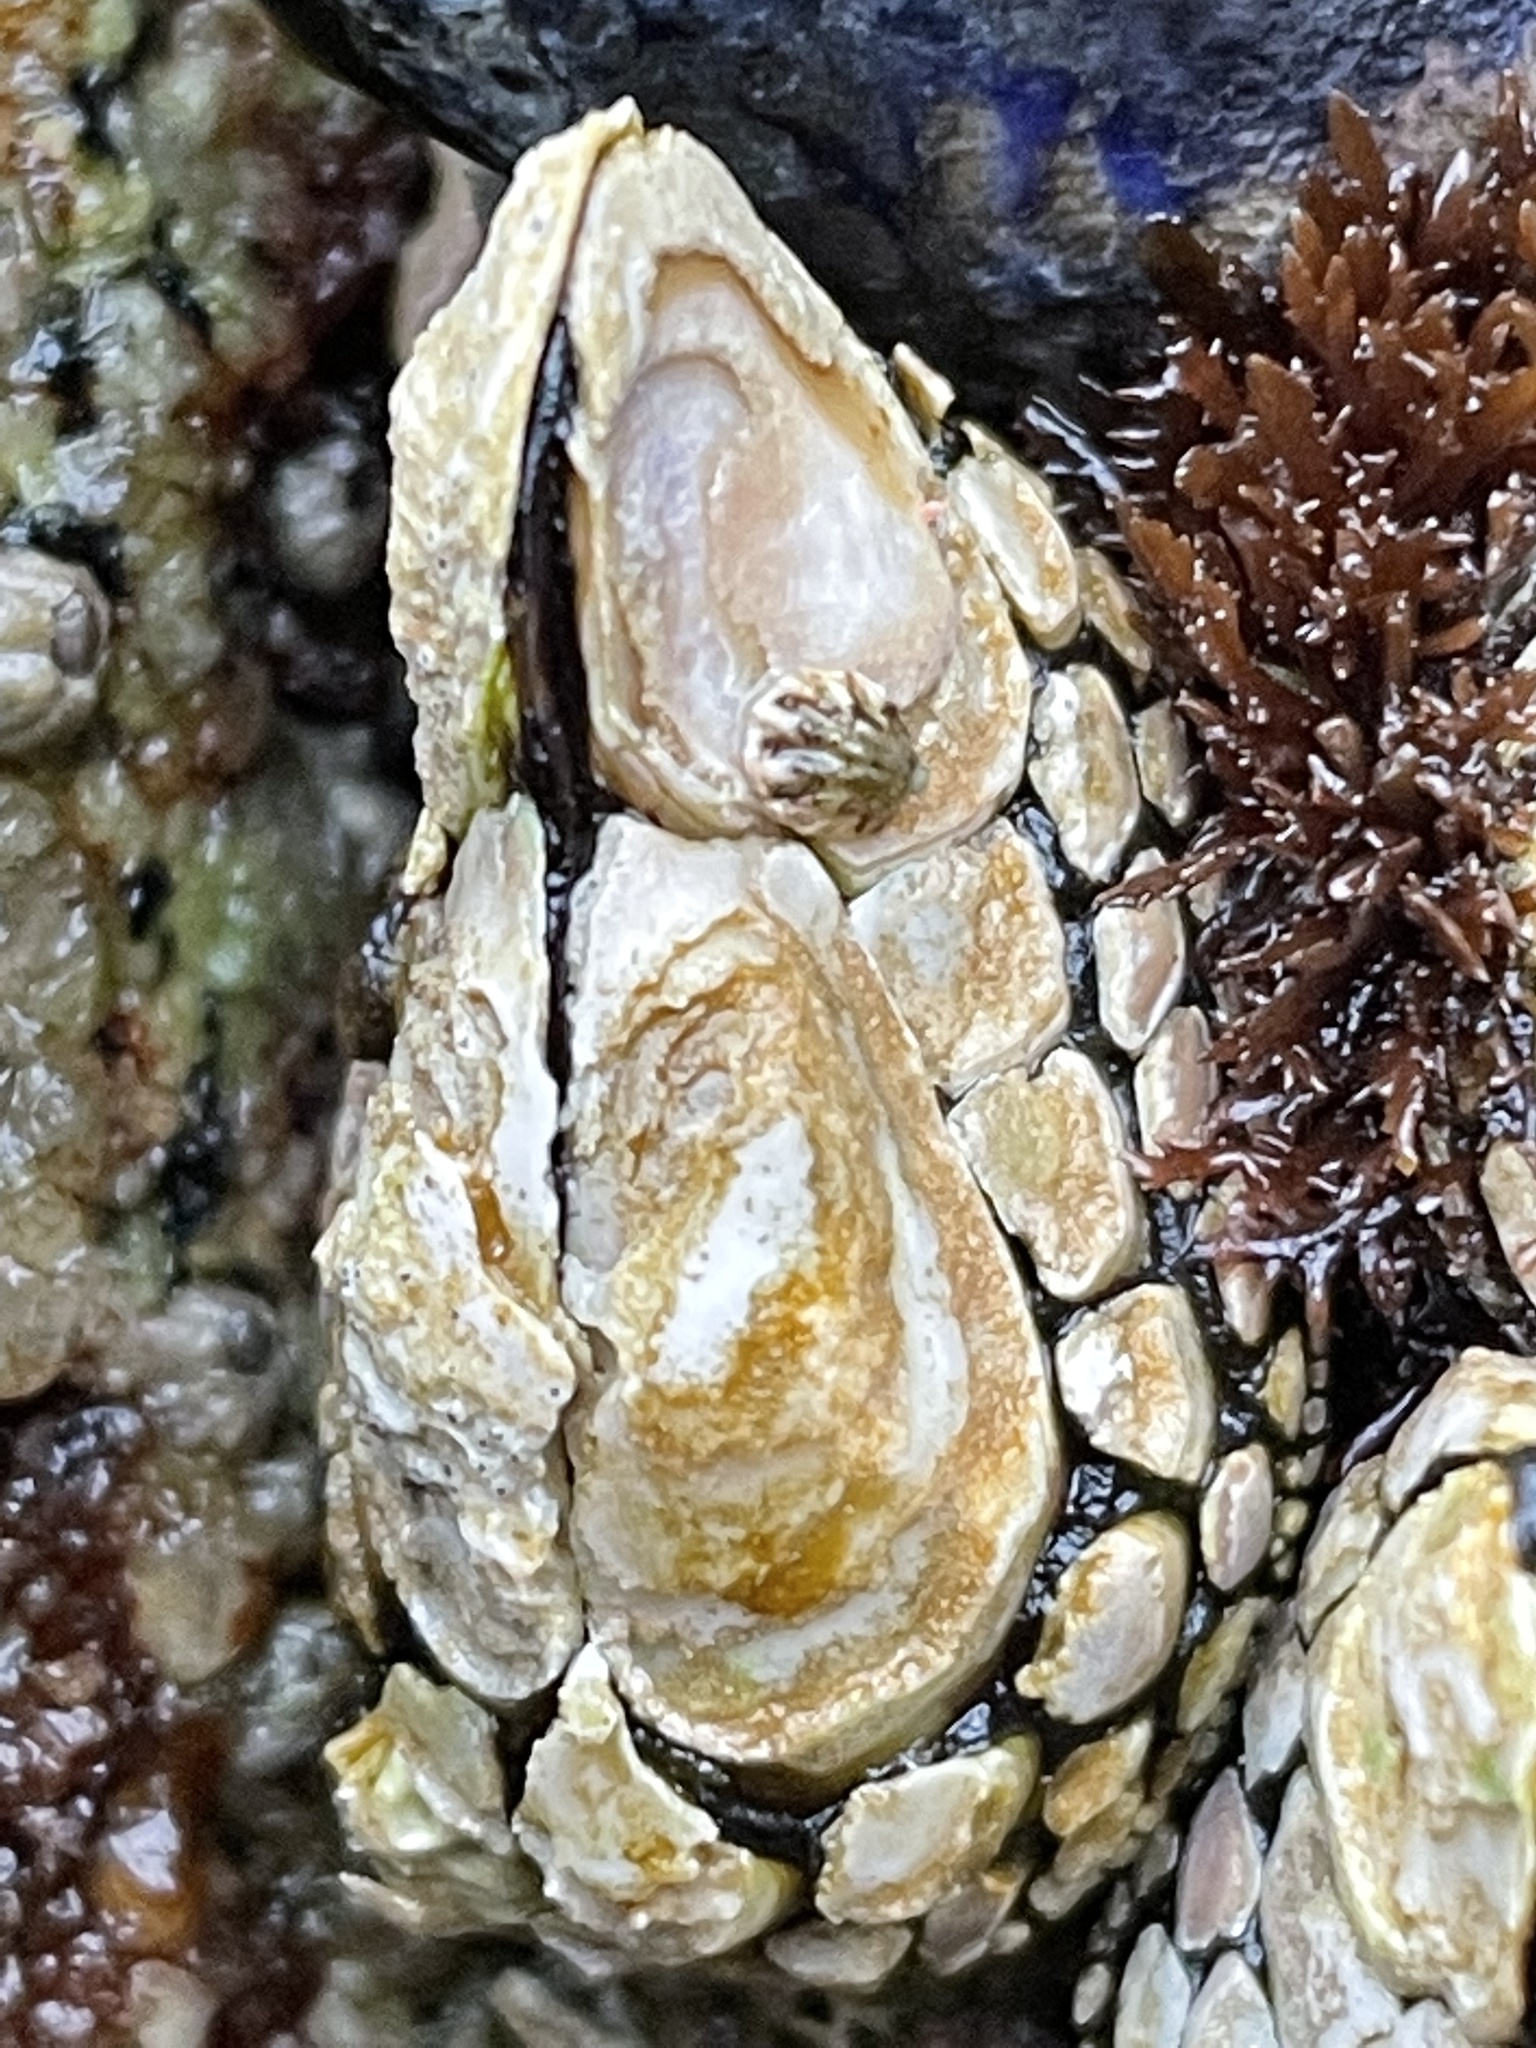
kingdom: Animalia
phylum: Arthropoda
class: Maxillopoda
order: Pedunculata
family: Pollicipedidae
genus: Pollicipes
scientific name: Pollicipes polymerus
